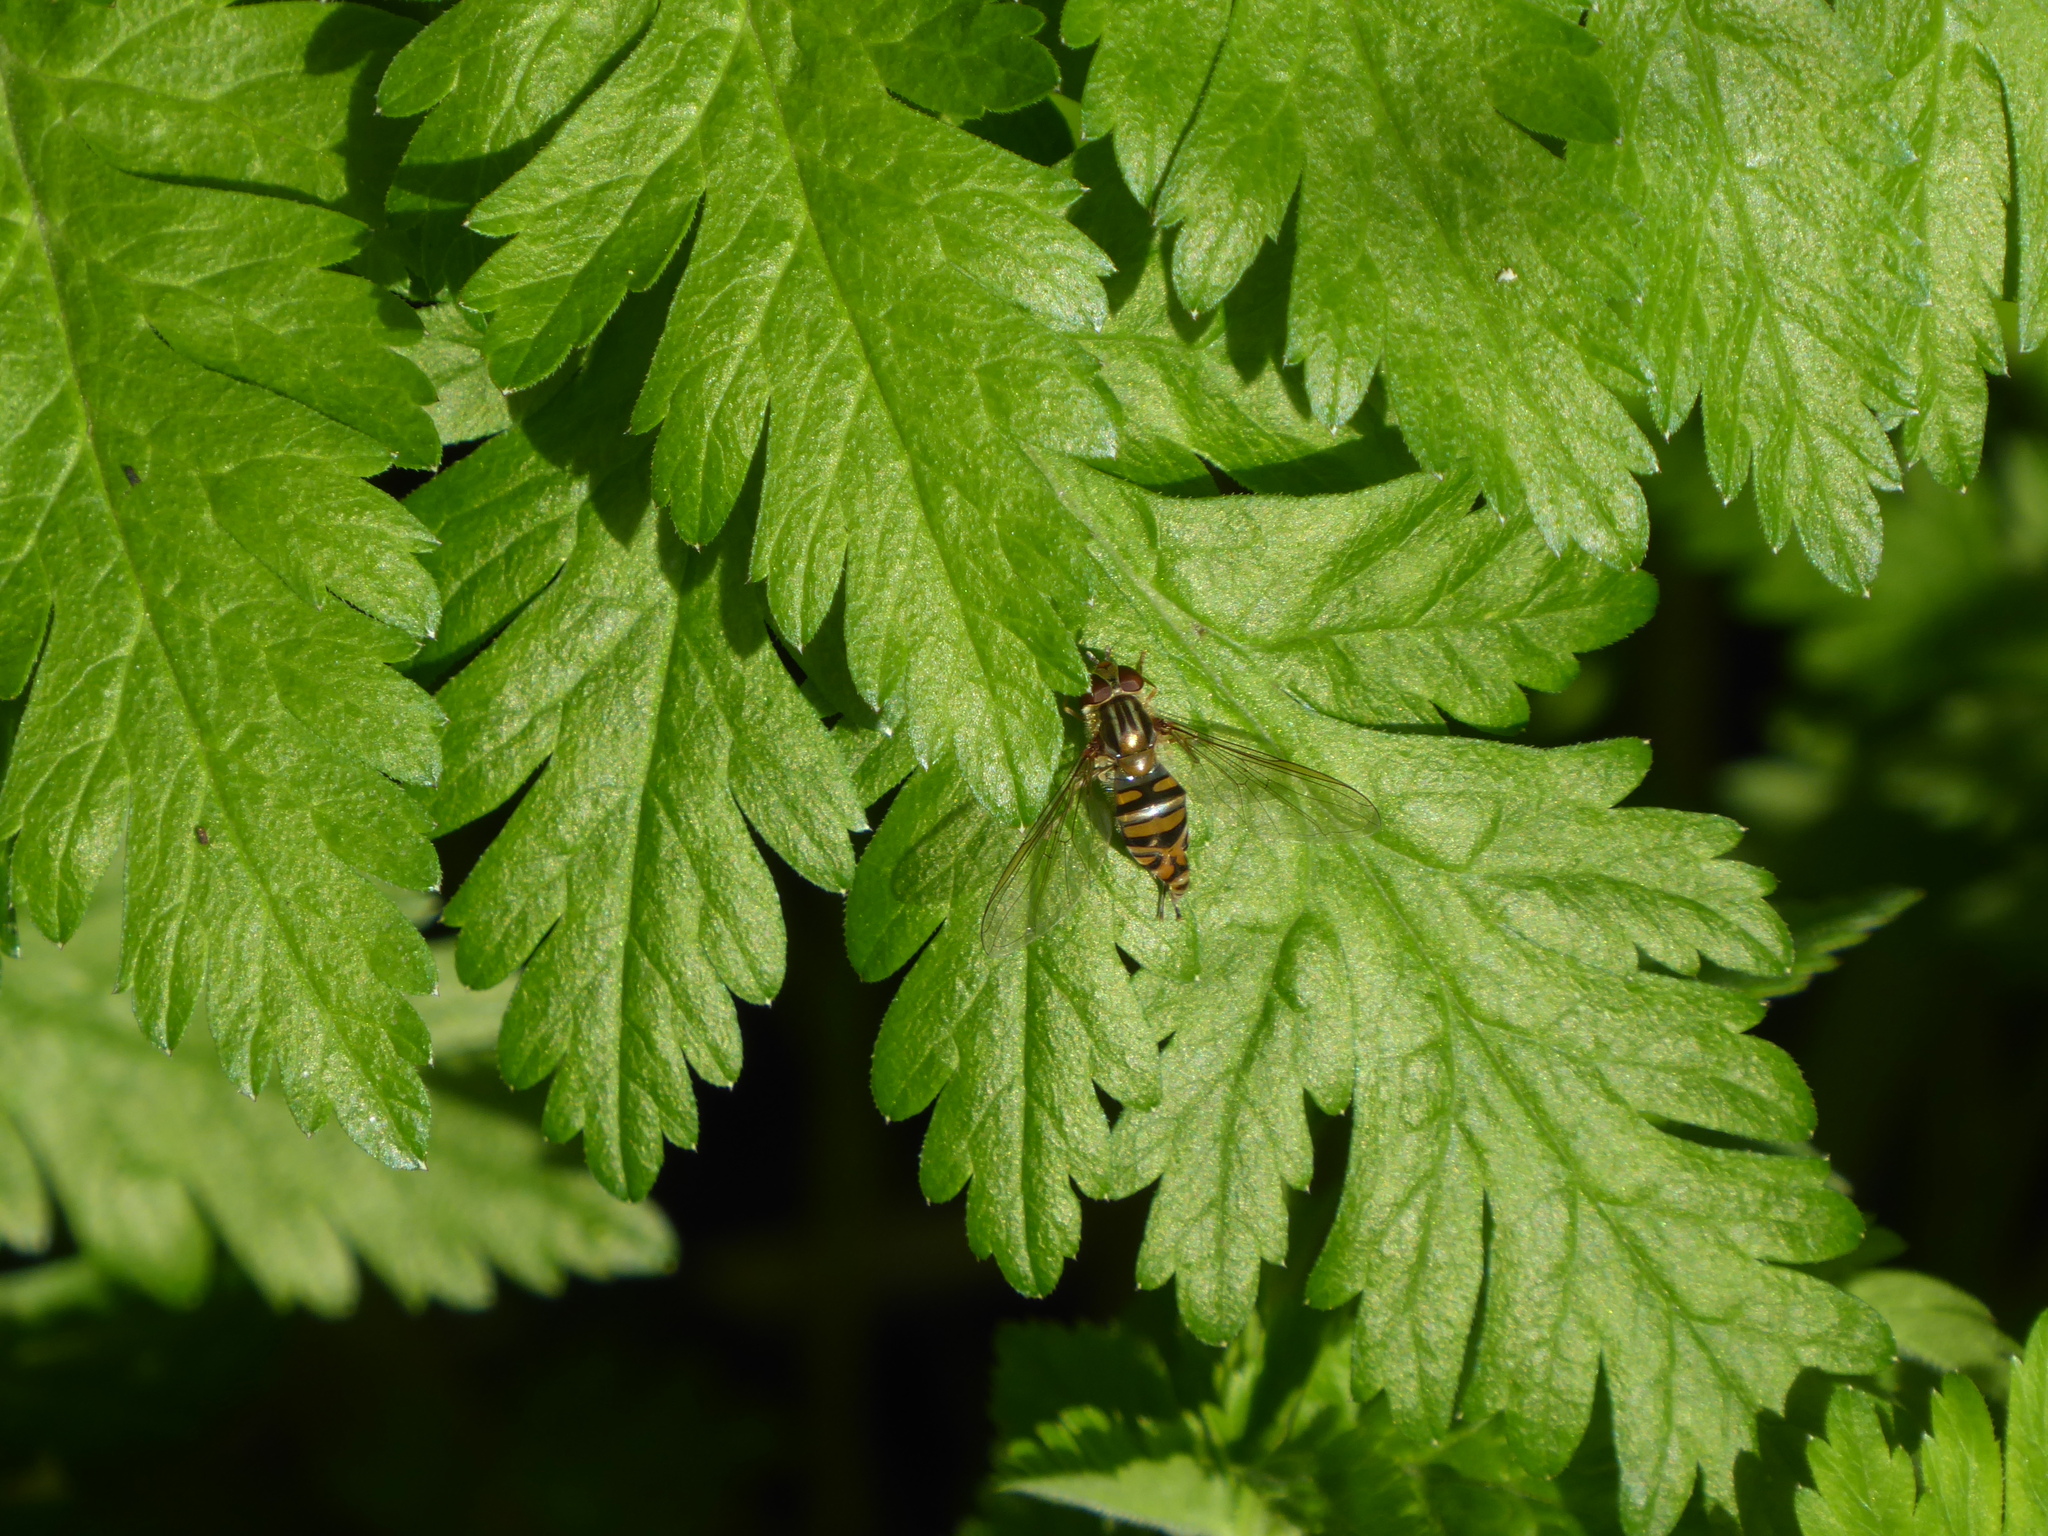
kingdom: Animalia
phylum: Arthropoda
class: Insecta
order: Diptera
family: Syrphidae
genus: Episyrphus
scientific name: Episyrphus balteatus
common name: Marmalade hoverfly
